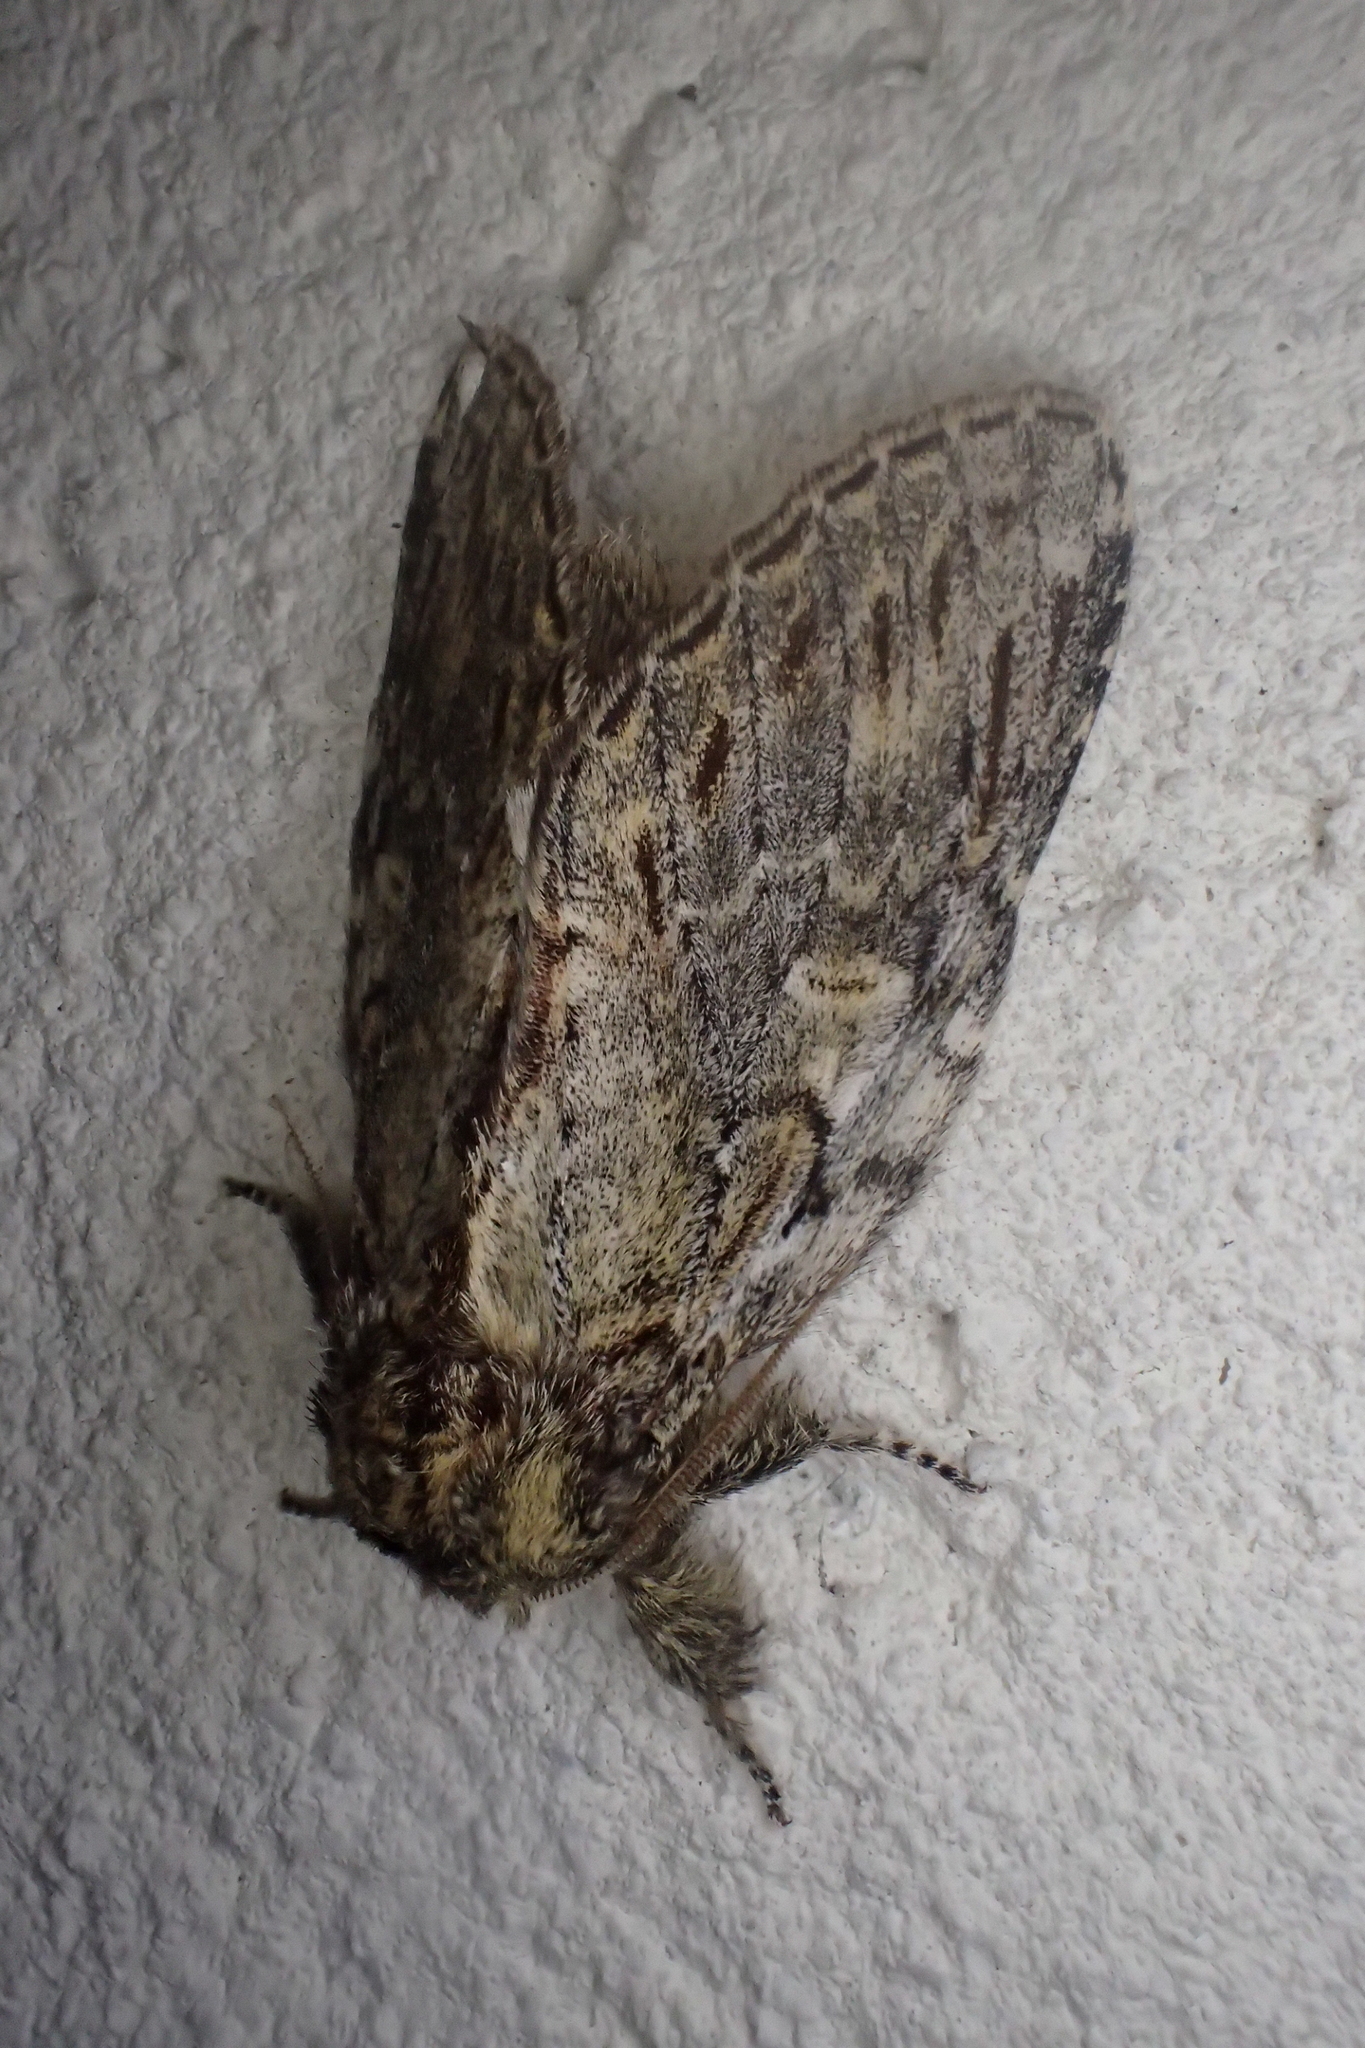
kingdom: Animalia
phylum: Arthropoda
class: Insecta
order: Lepidoptera
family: Notodontidae
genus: Peridea
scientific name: Peridea anceps
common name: Great prominent
